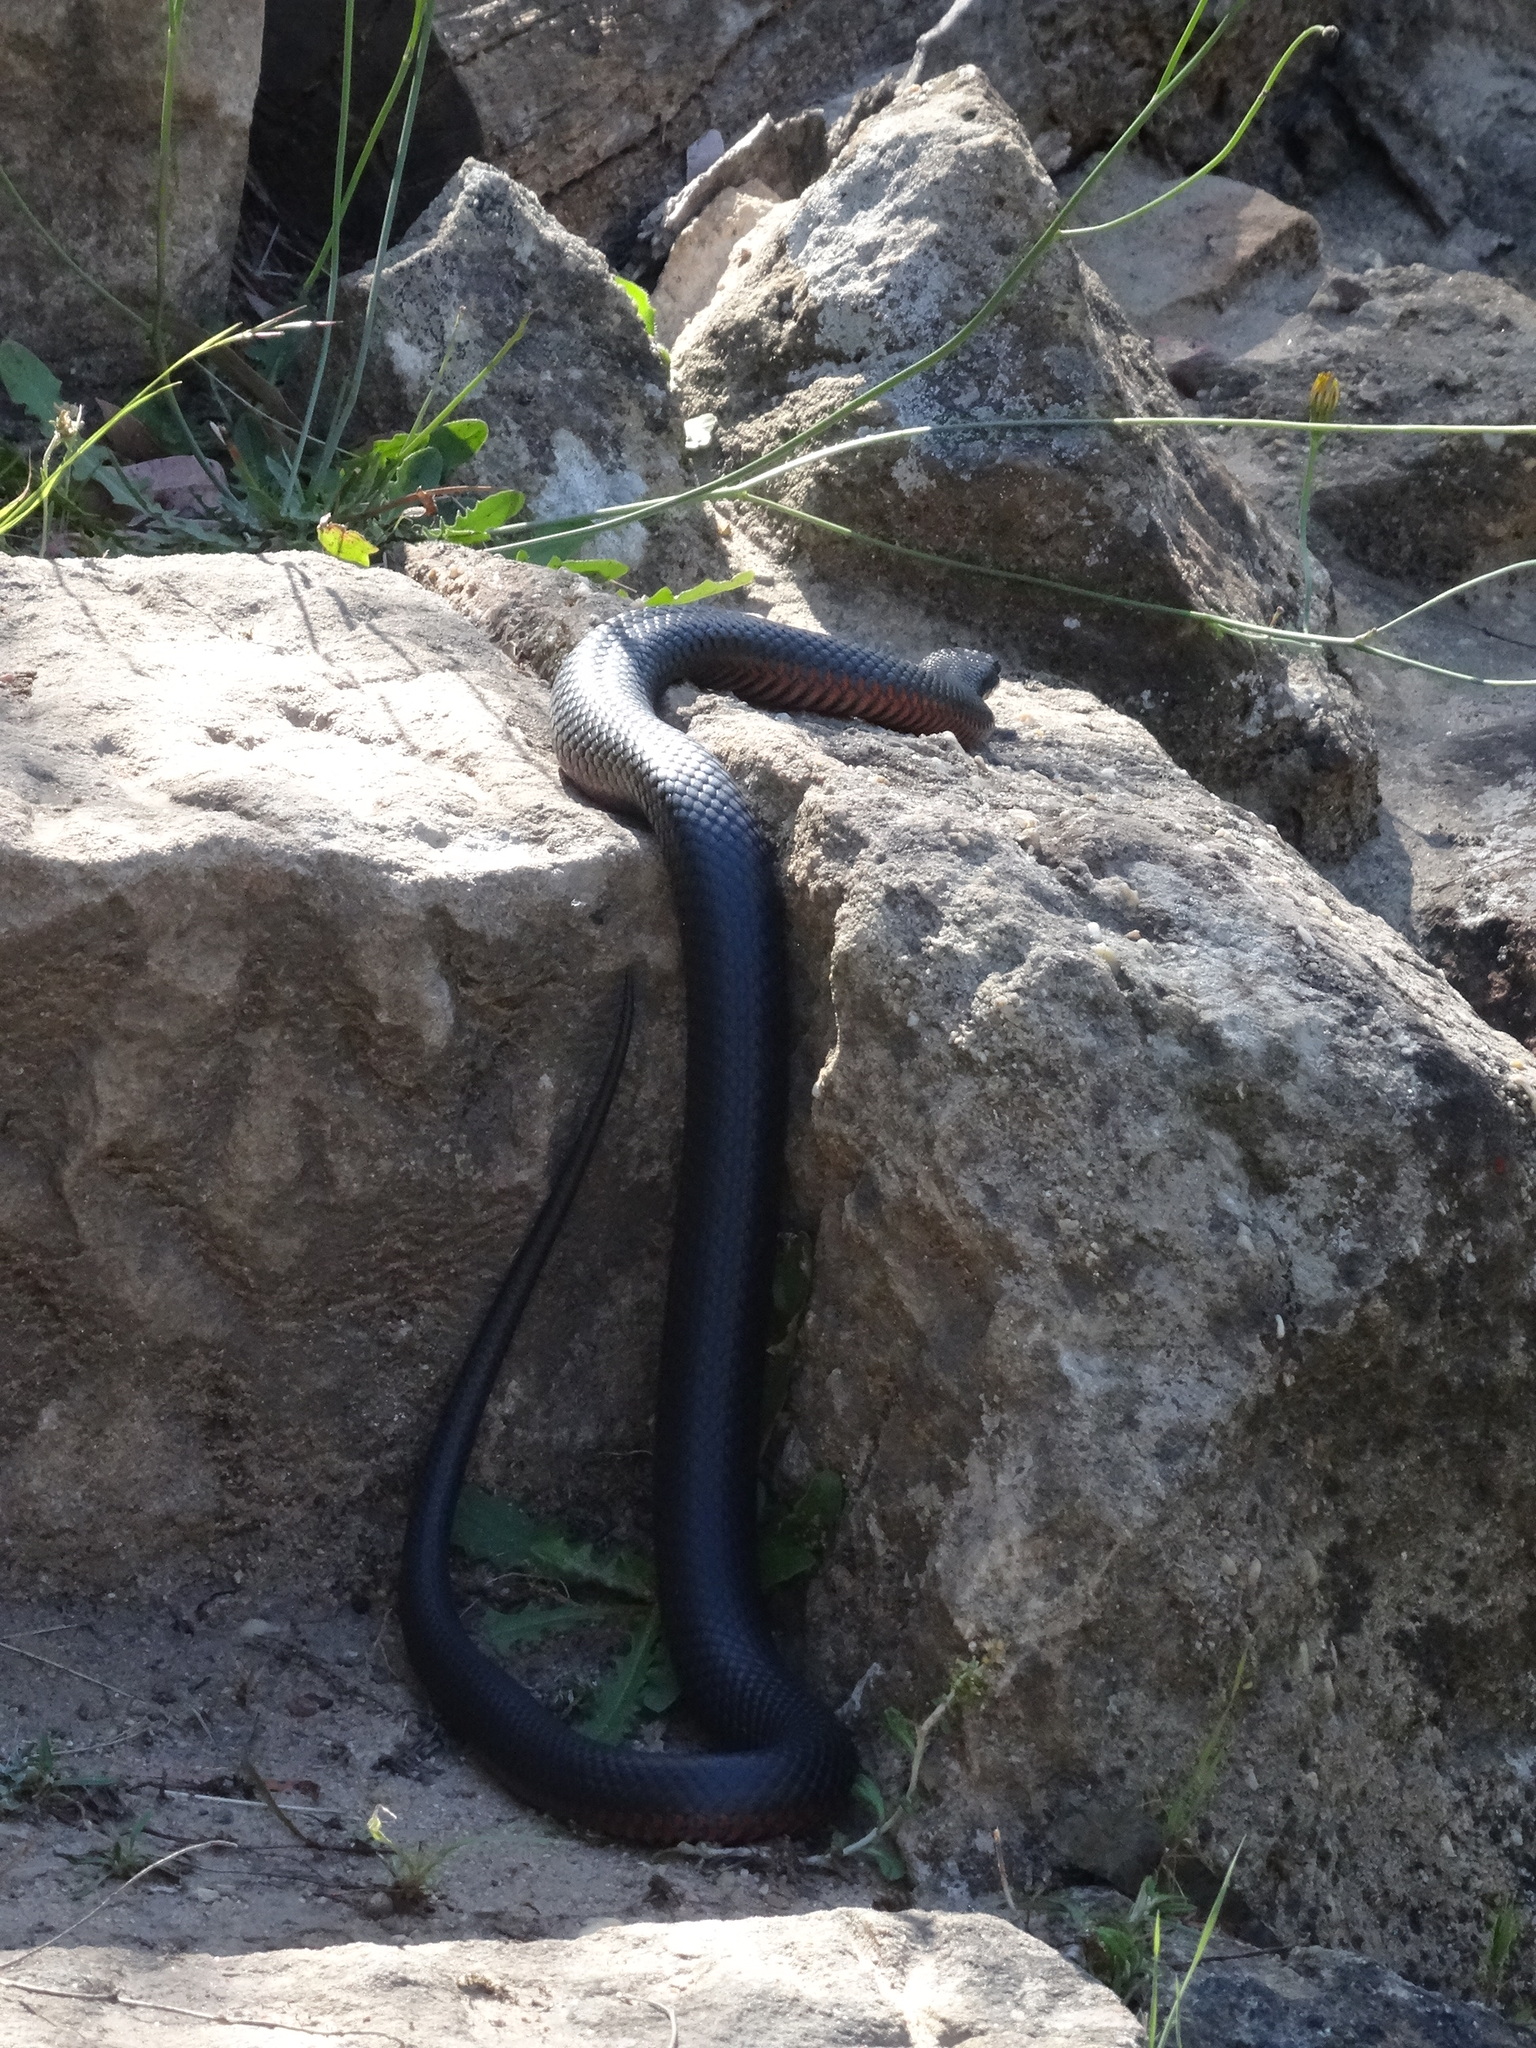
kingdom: Animalia
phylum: Chordata
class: Squamata
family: Elapidae
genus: Pseudechis
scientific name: Pseudechis porphyriacus
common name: Australian black snake
